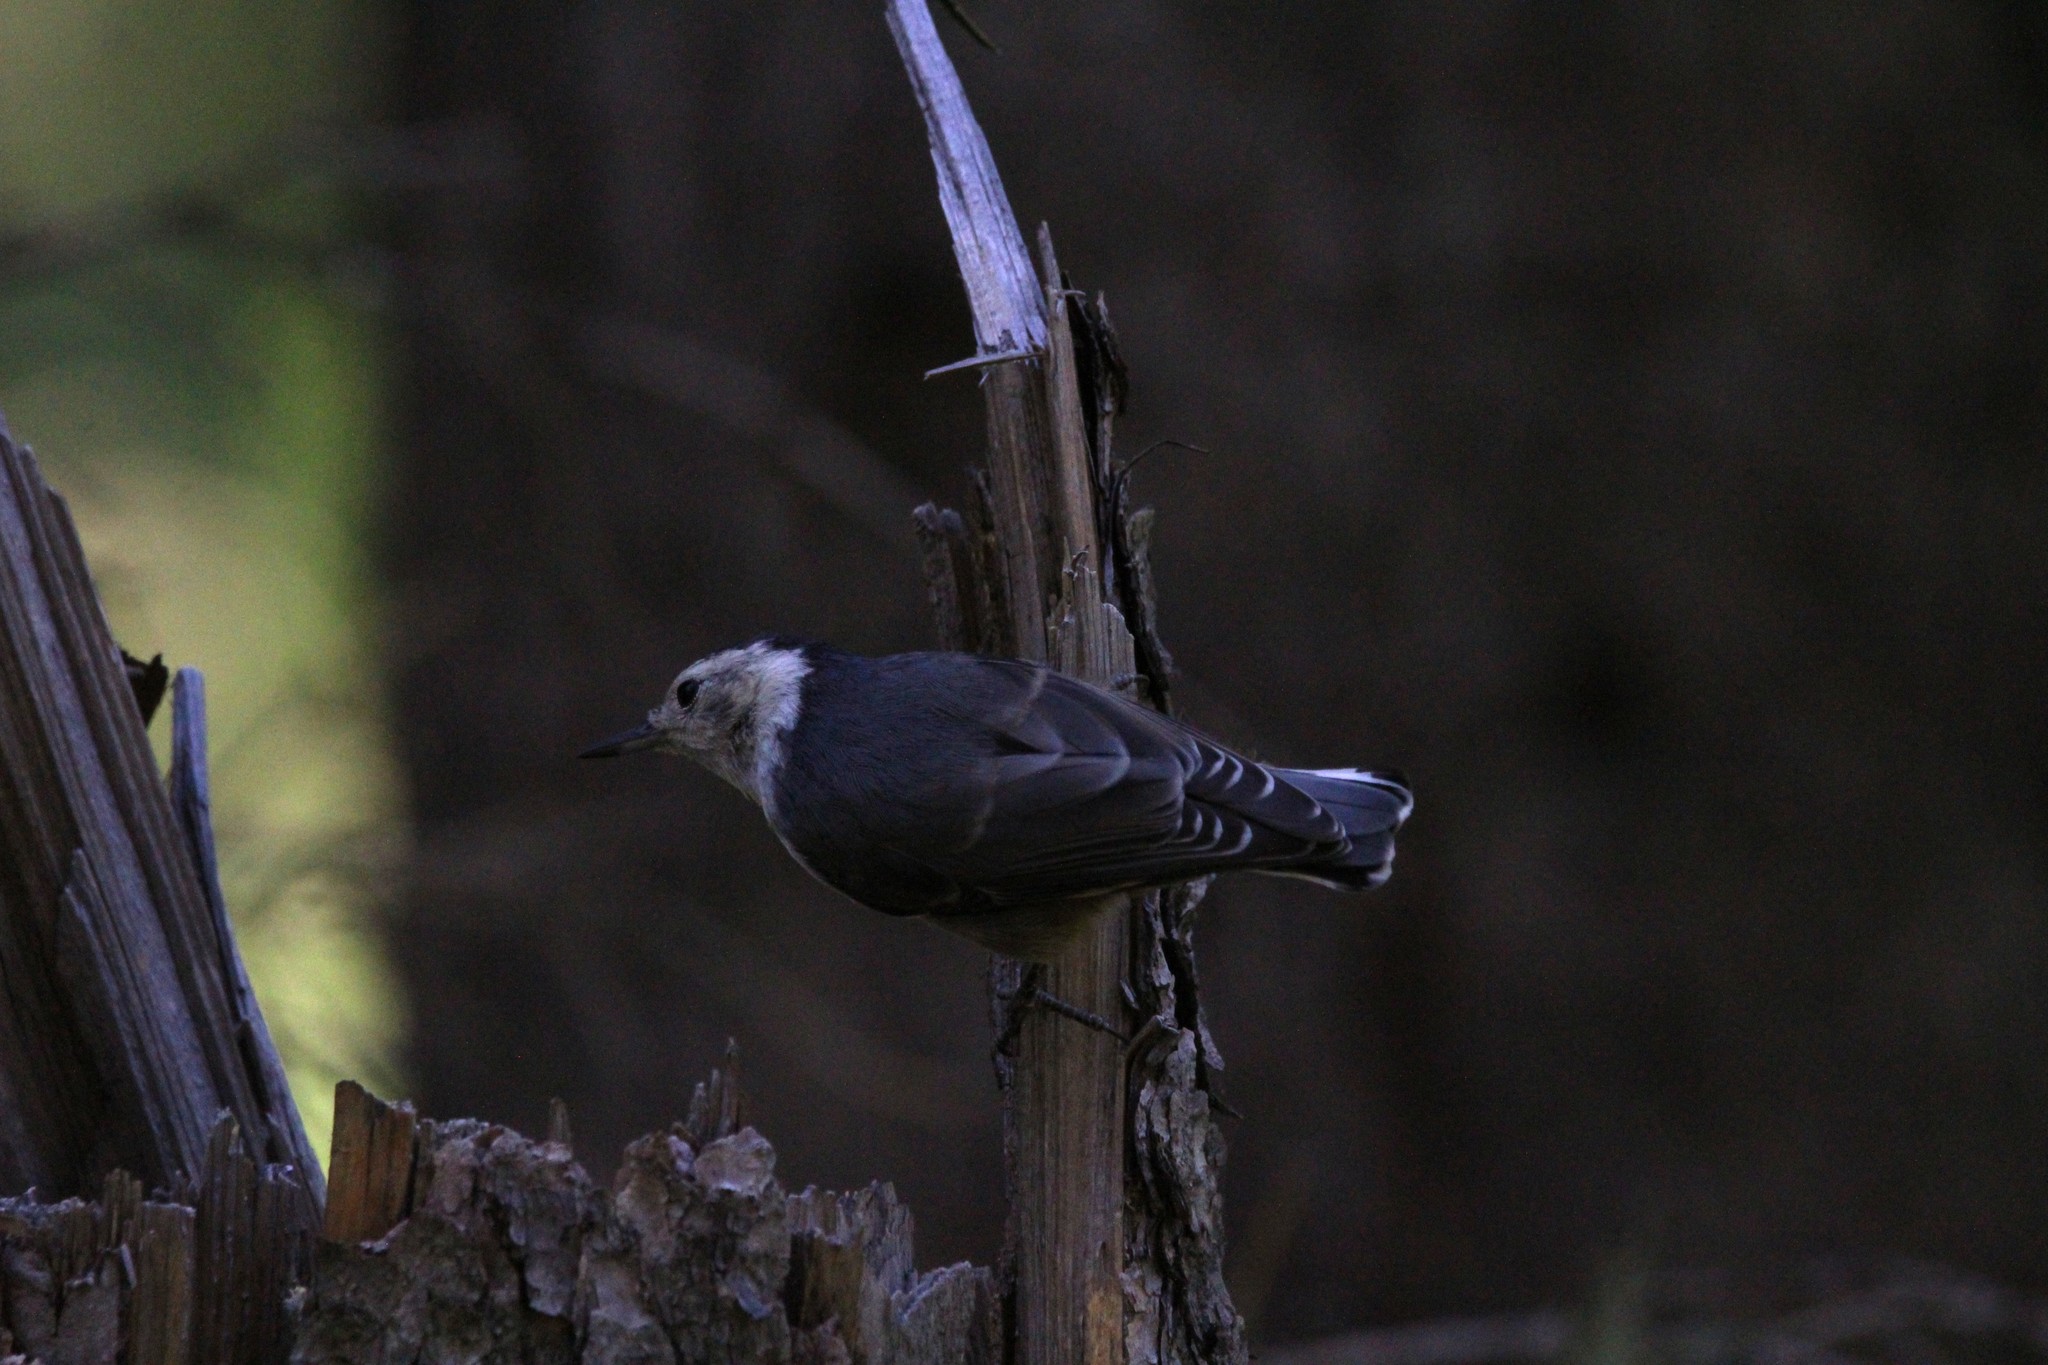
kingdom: Animalia
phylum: Chordata
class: Aves
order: Passeriformes
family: Sittidae
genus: Sitta
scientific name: Sitta carolinensis
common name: White-breasted nuthatch
